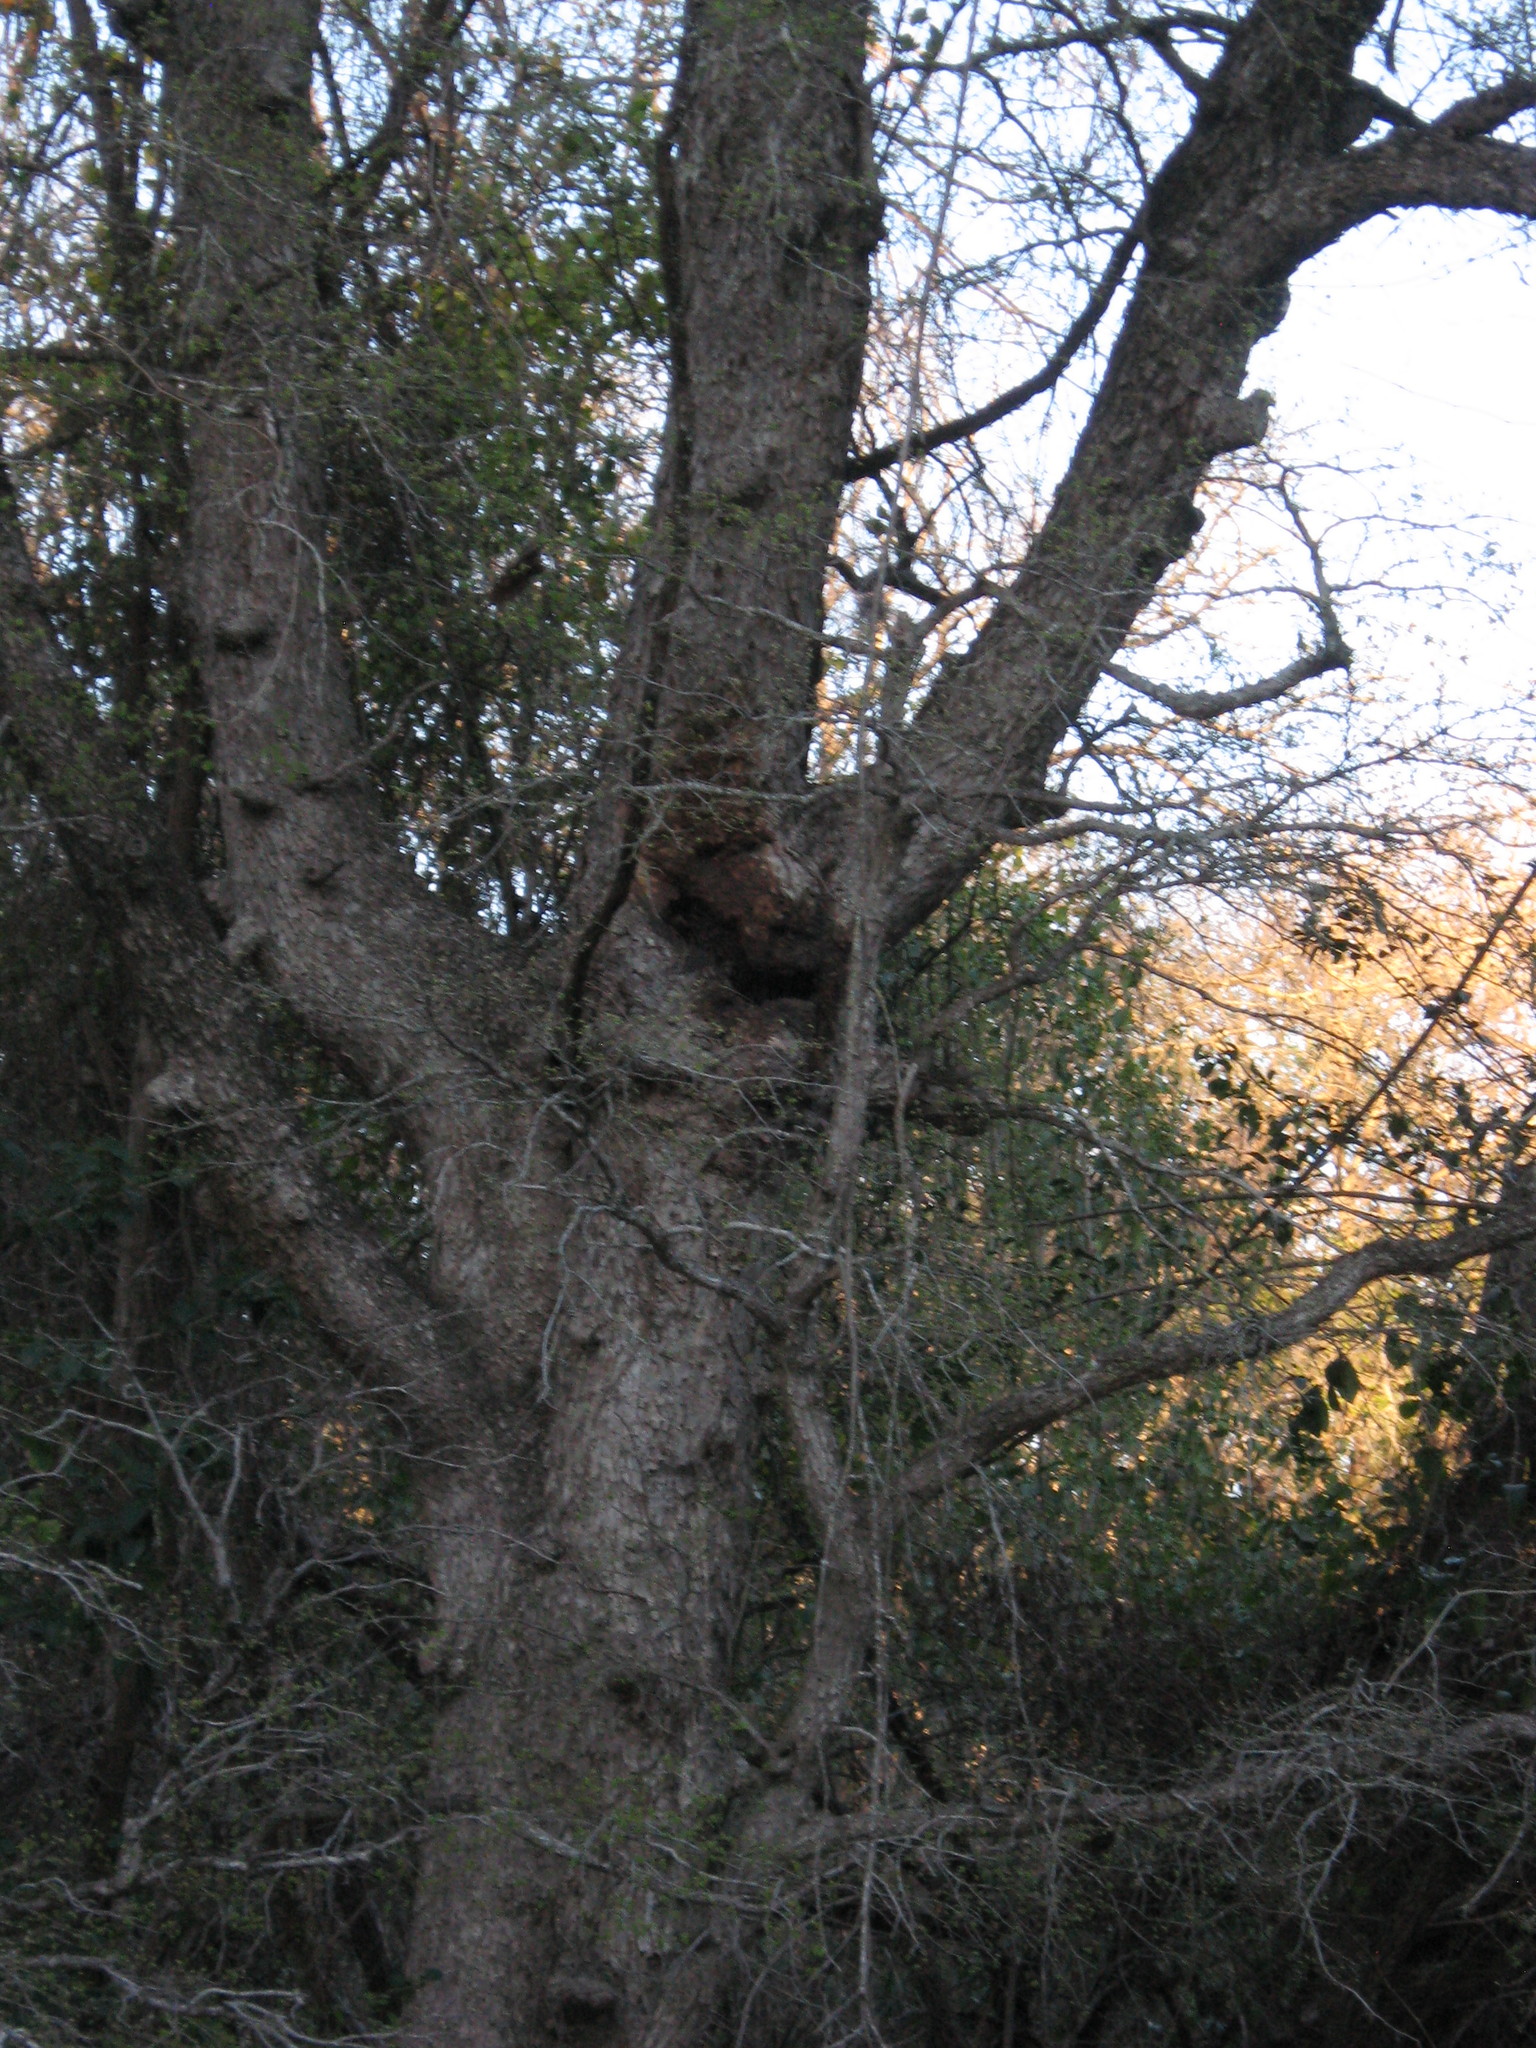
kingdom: Animalia
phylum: Arthropoda
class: Insecta
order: Hymenoptera
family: Apidae
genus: Apis
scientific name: Apis mellifera
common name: Honey bee
